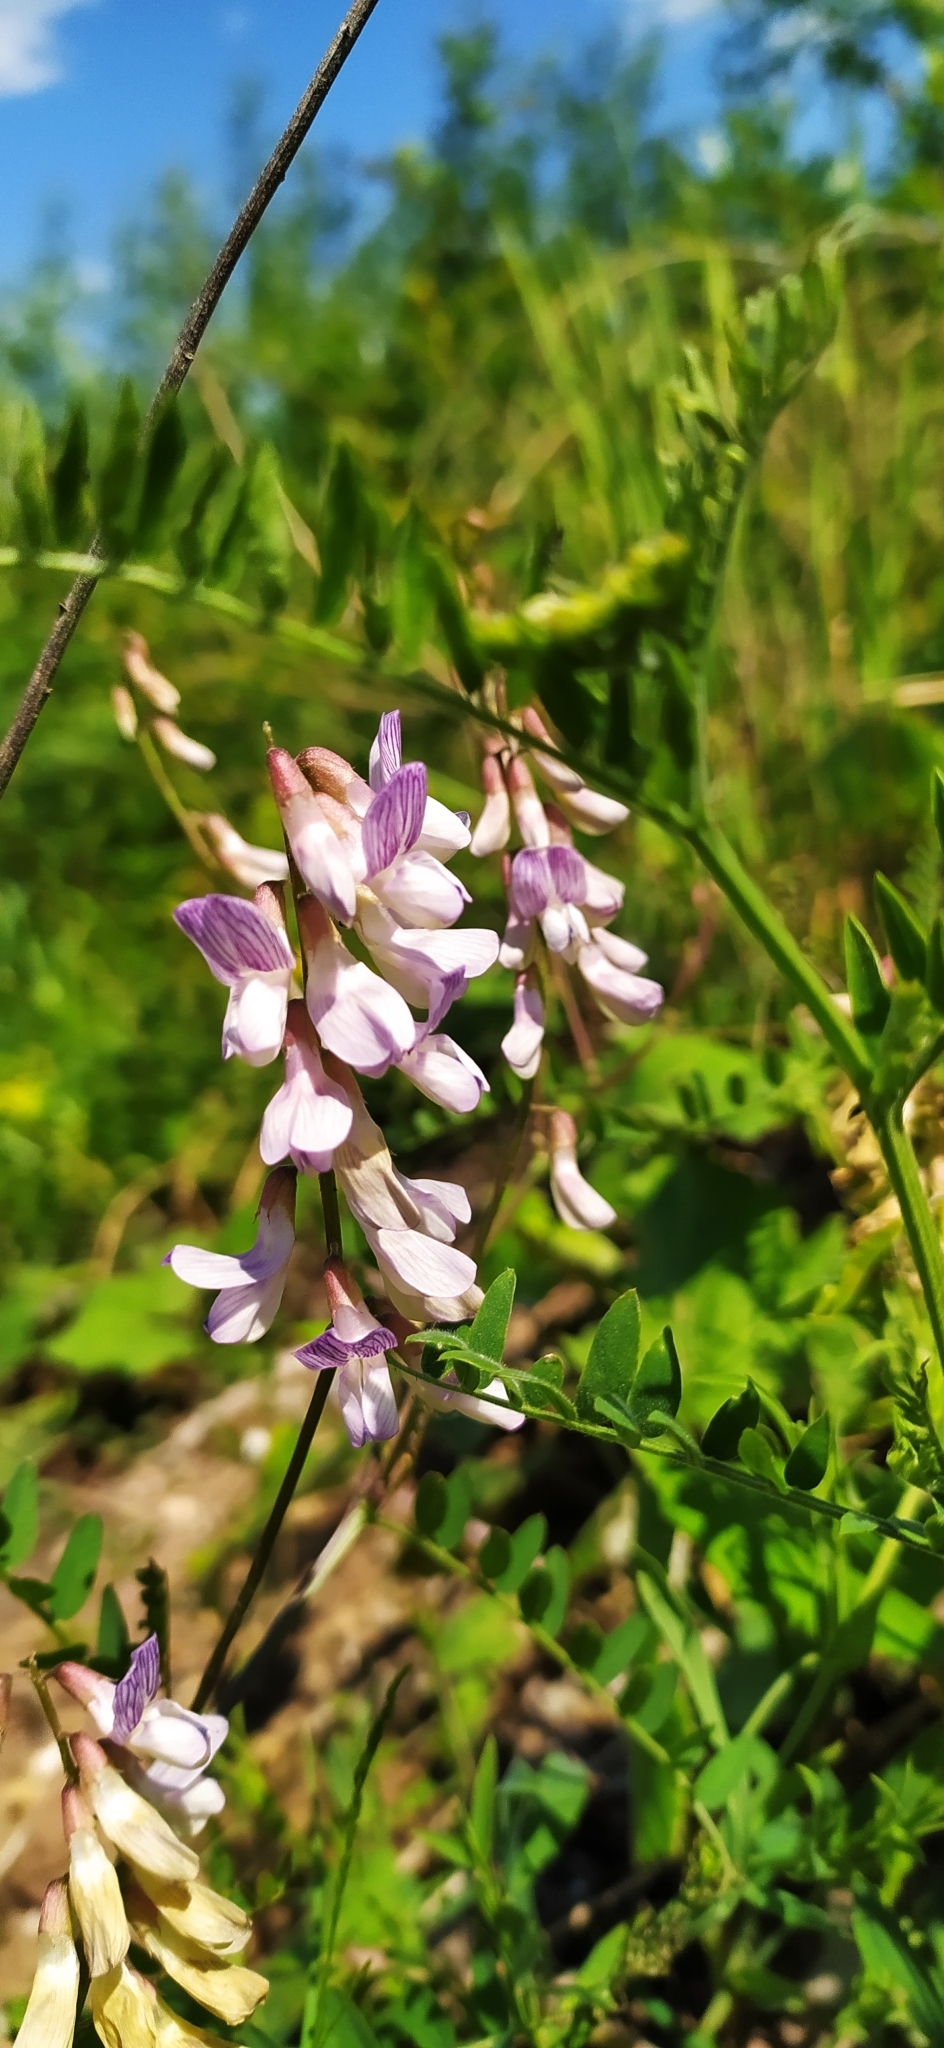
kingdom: Plantae
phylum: Tracheophyta
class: Magnoliopsida
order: Fabales
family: Fabaceae
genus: Vicia
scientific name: Vicia sylvatica
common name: Wood vetch
